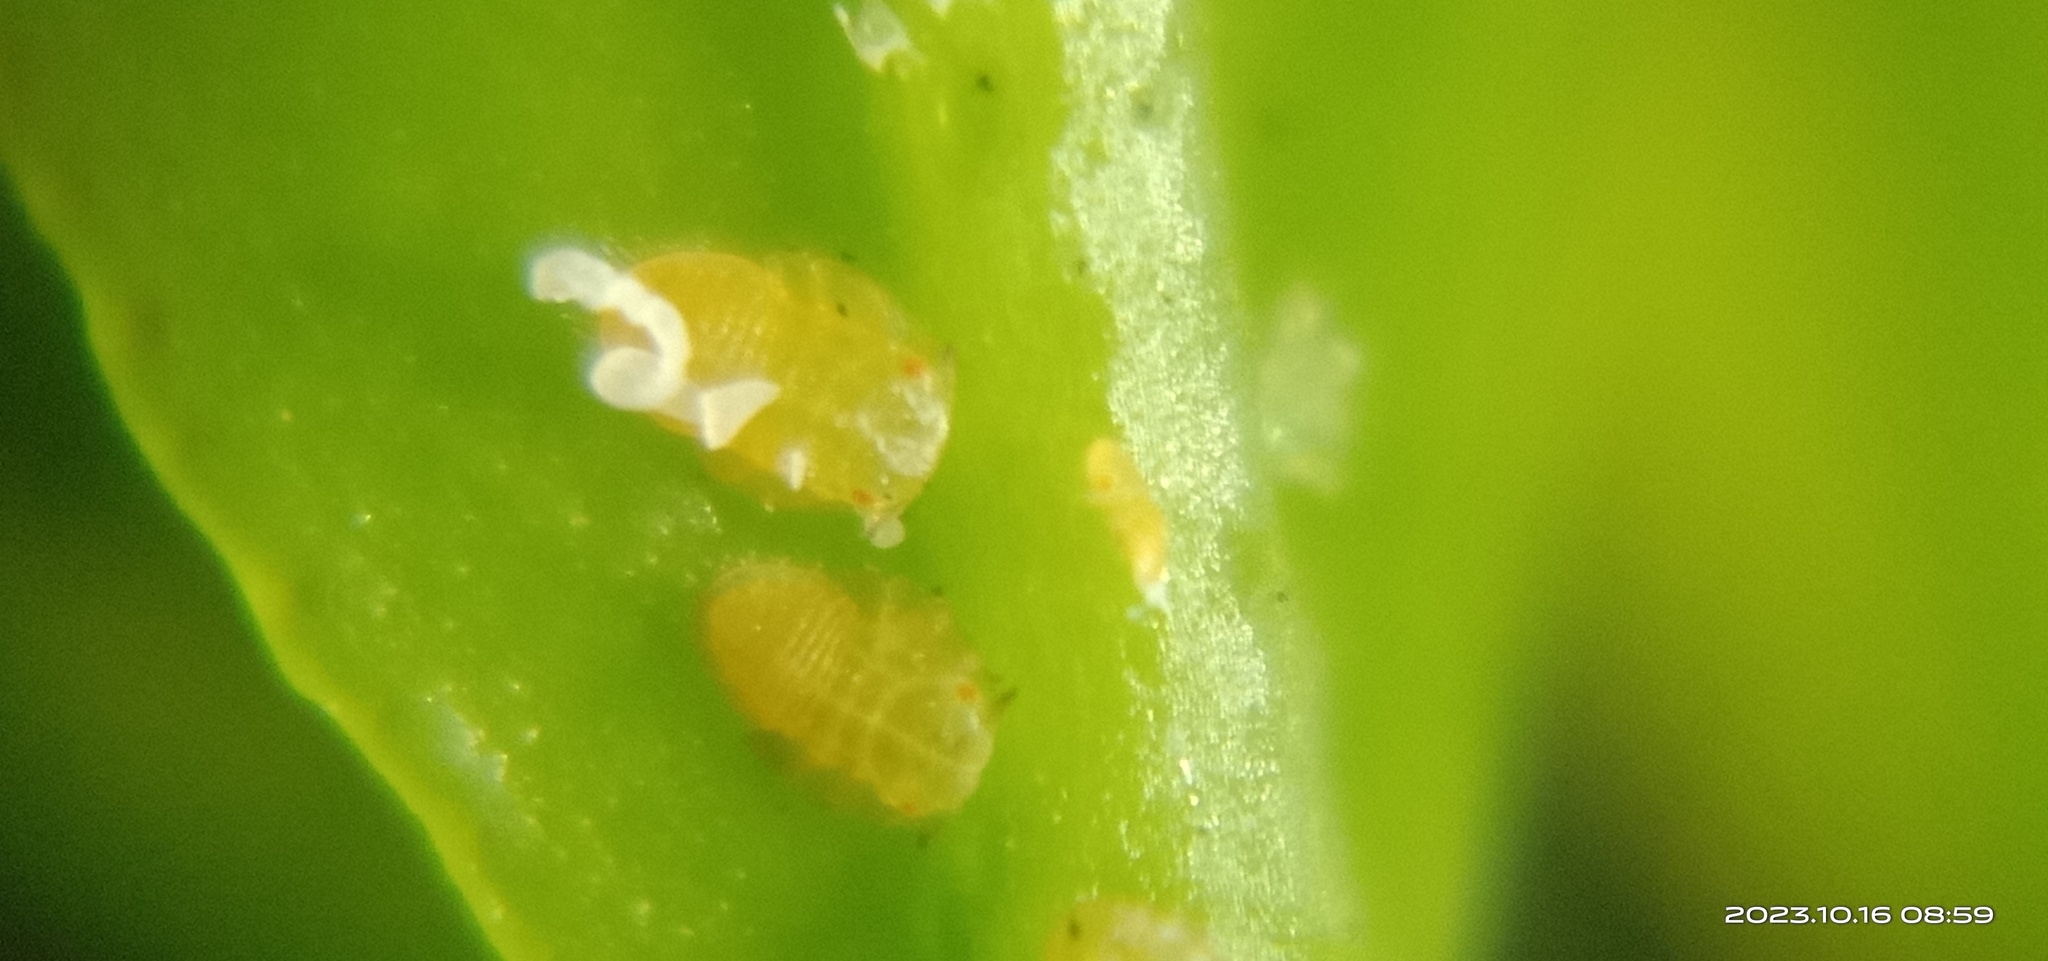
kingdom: Animalia
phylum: Arthropoda
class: Insecta
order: Hemiptera
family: Liviidae
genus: Diaphorina
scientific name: Diaphorina citri
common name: Asian citrus psyllid
